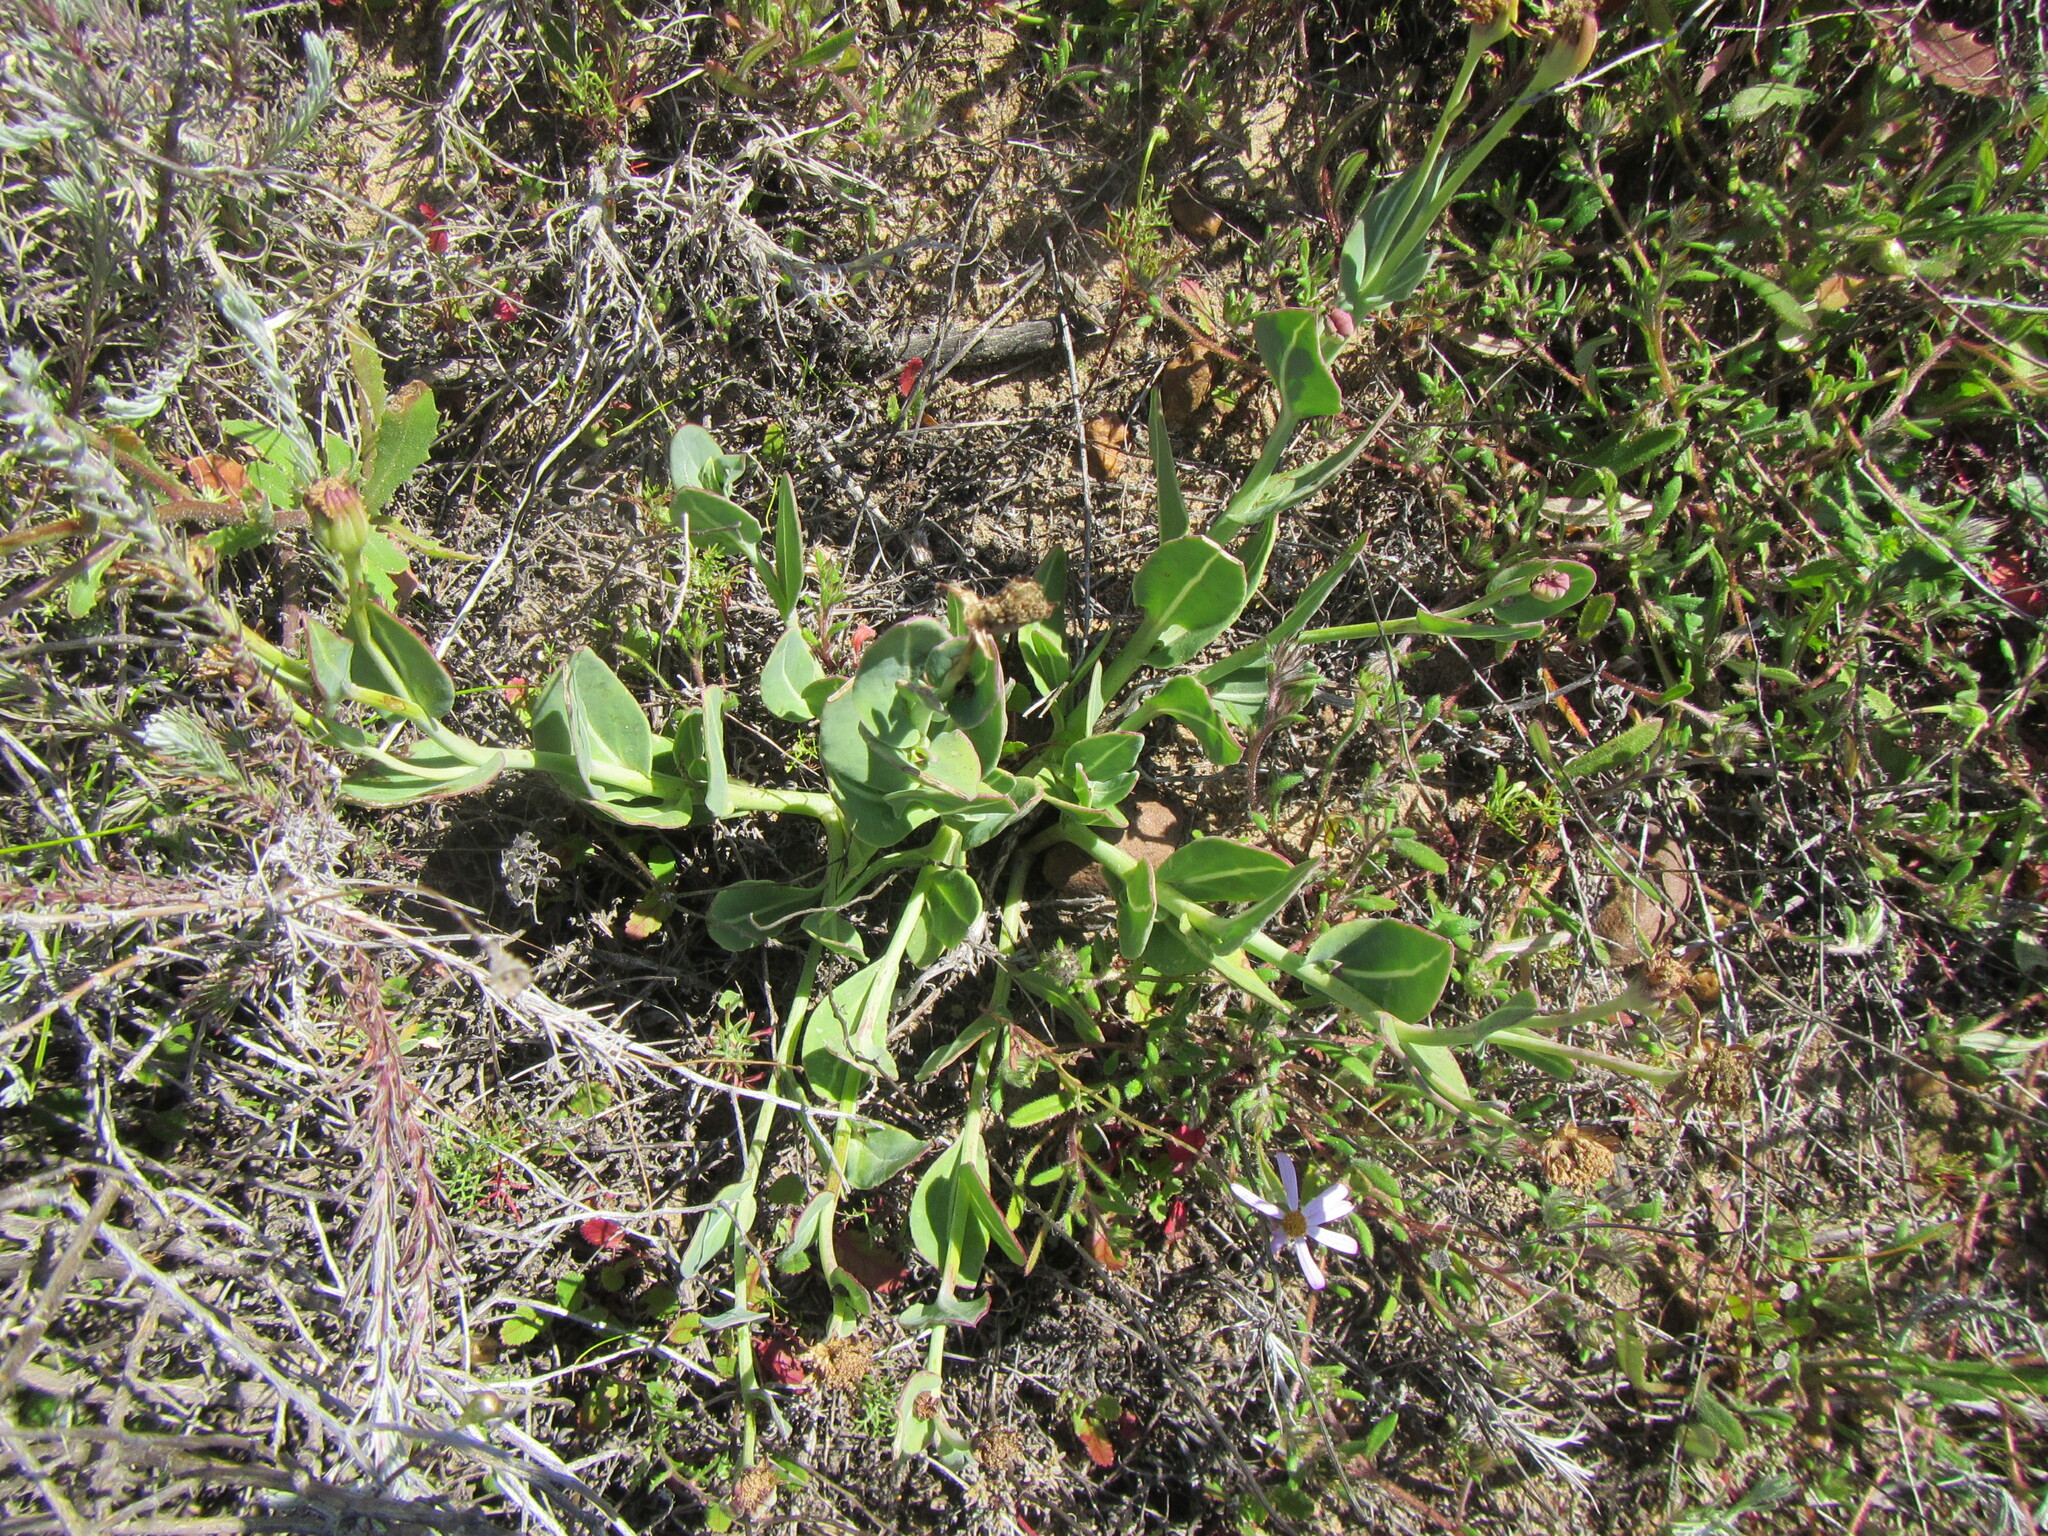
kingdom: Plantae
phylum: Tracheophyta
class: Magnoliopsida
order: Asterales
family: Asteraceae
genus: Othonna
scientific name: Othonna gymnodiscus
